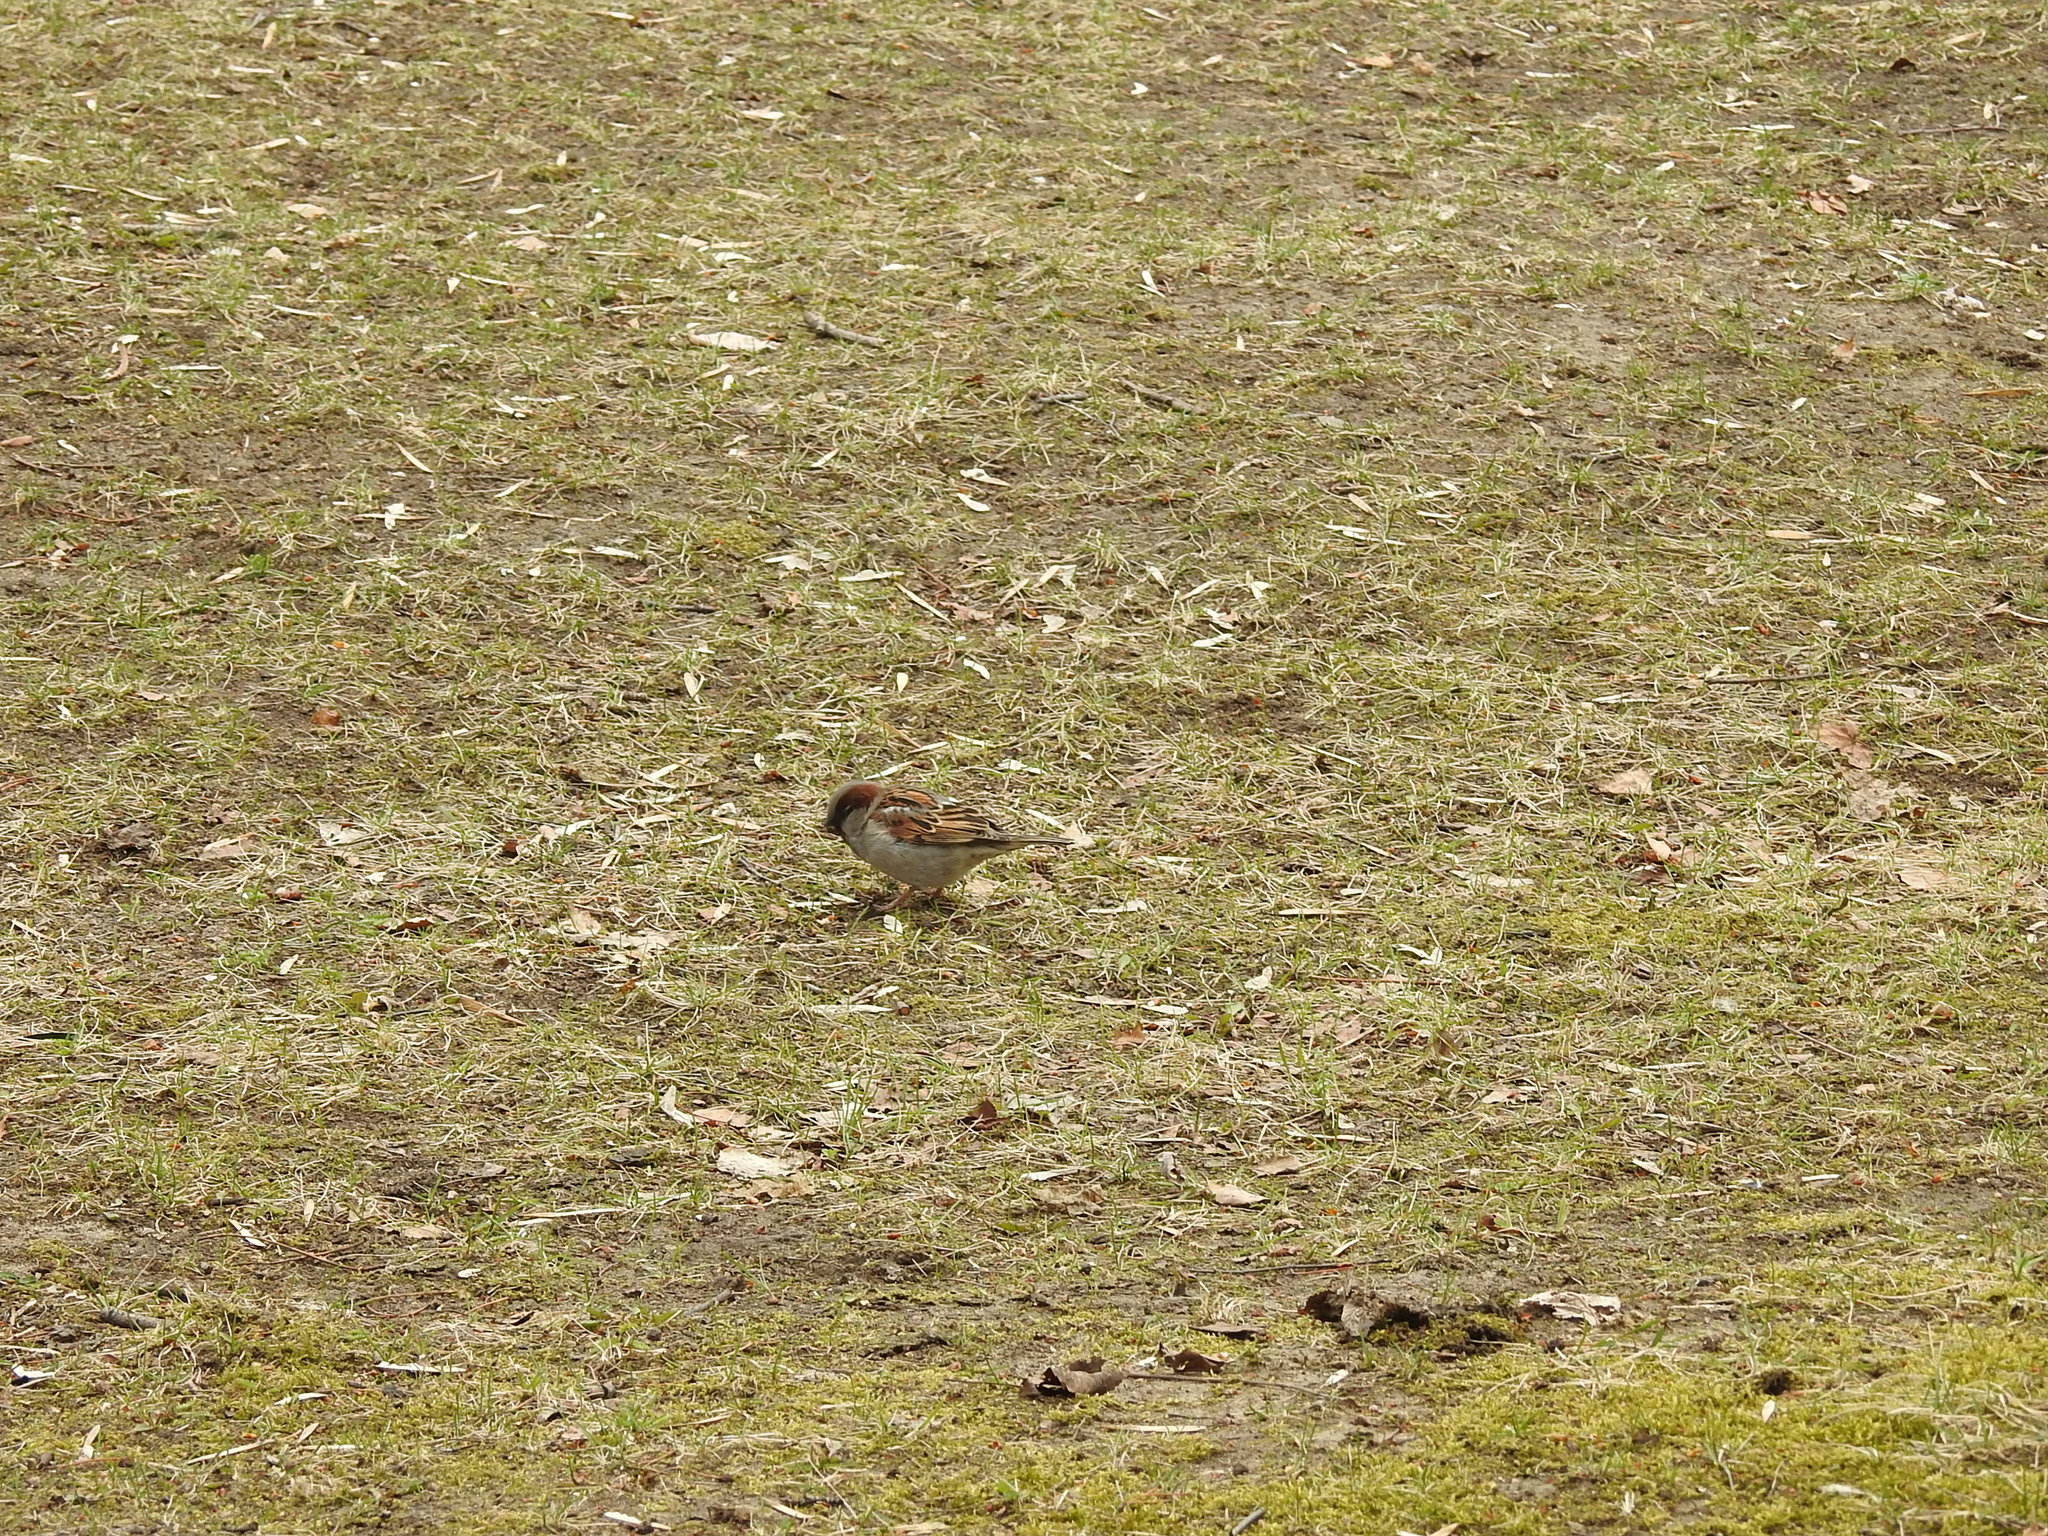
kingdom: Animalia
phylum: Chordata
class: Aves
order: Passeriformes
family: Passeridae
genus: Passer
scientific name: Passer domesticus
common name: House sparrow
